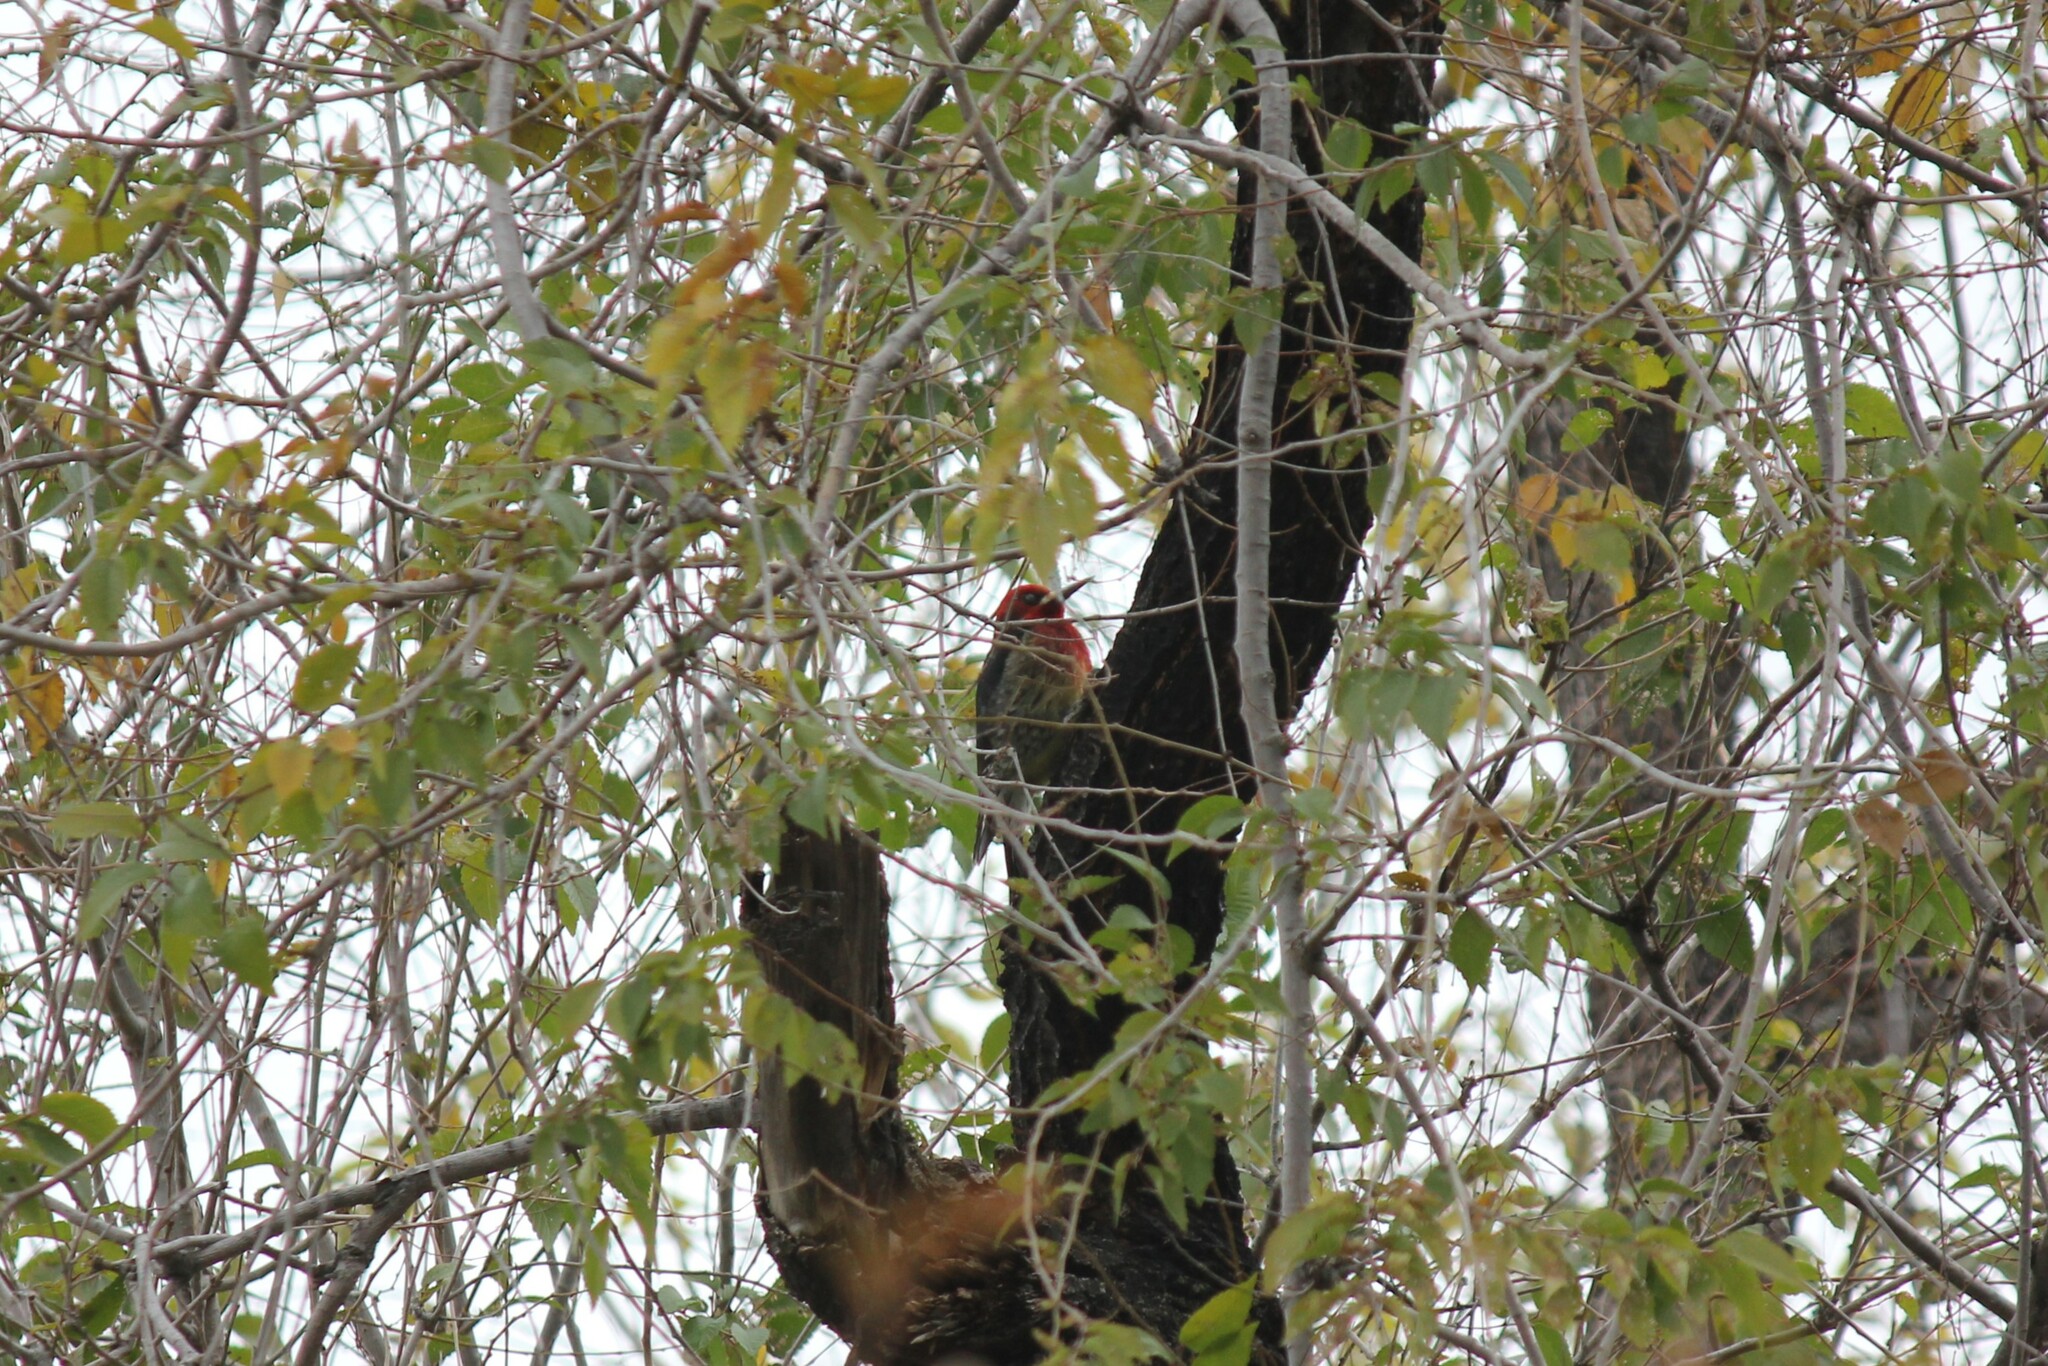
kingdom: Animalia
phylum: Chordata
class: Aves
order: Piciformes
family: Picidae
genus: Sphyrapicus
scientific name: Sphyrapicus ruber
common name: Red-breasted sapsucker
